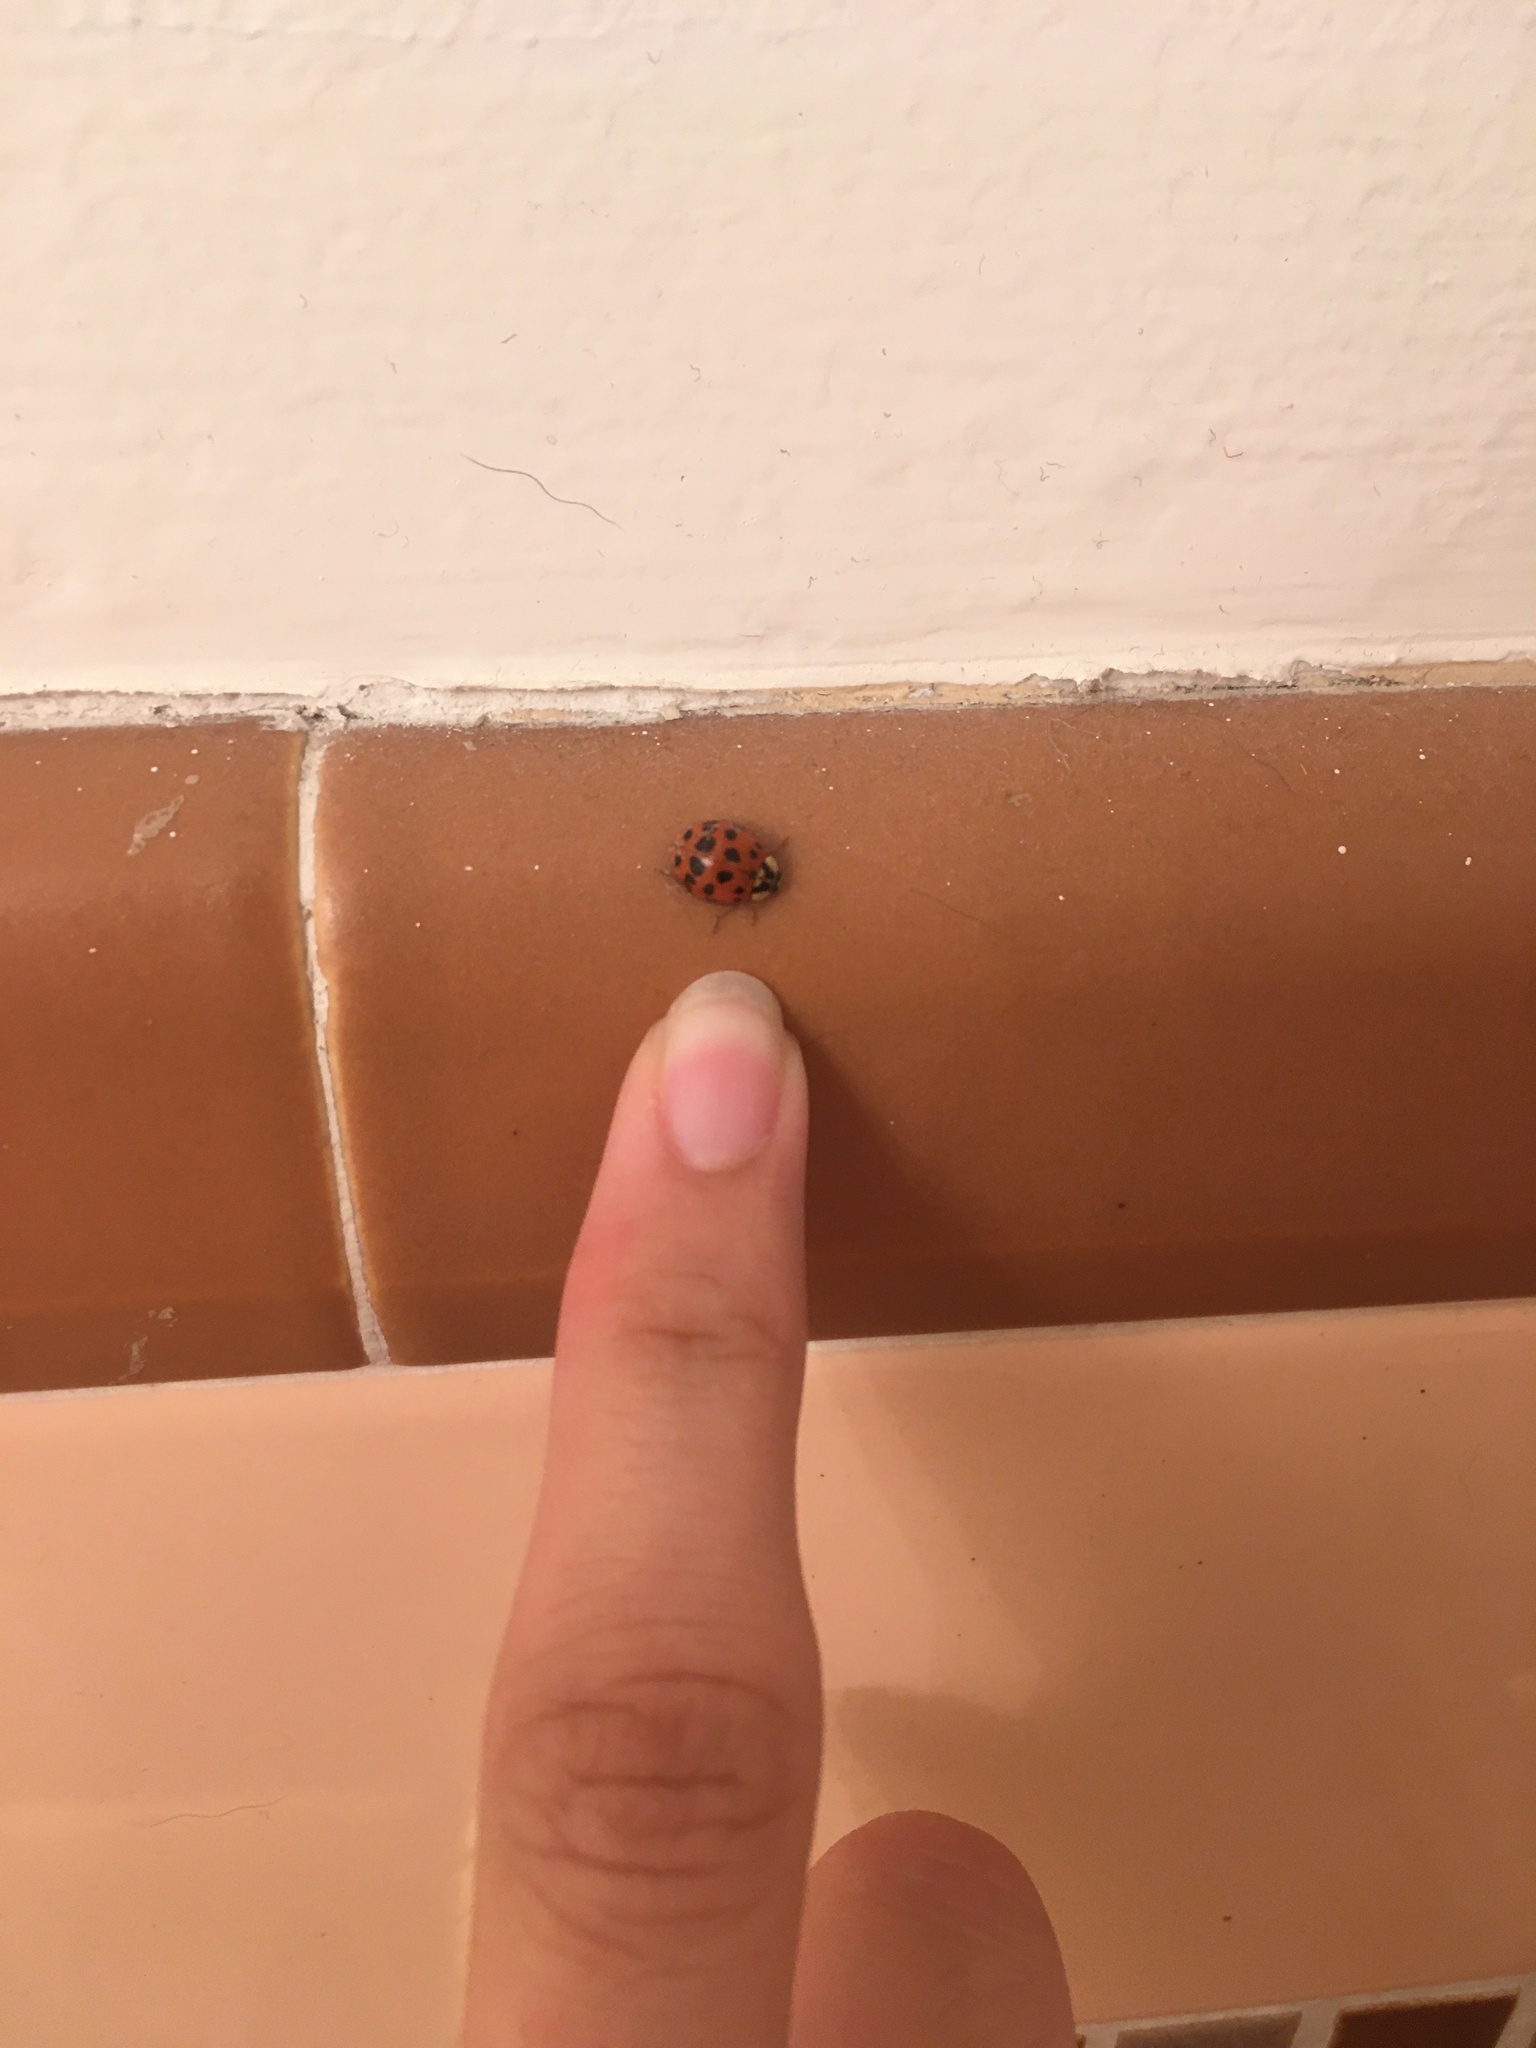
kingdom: Animalia
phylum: Arthropoda
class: Insecta
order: Coleoptera
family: Coccinellidae
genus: Harmonia
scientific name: Harmonia axyridis
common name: Harlequin ladybird
